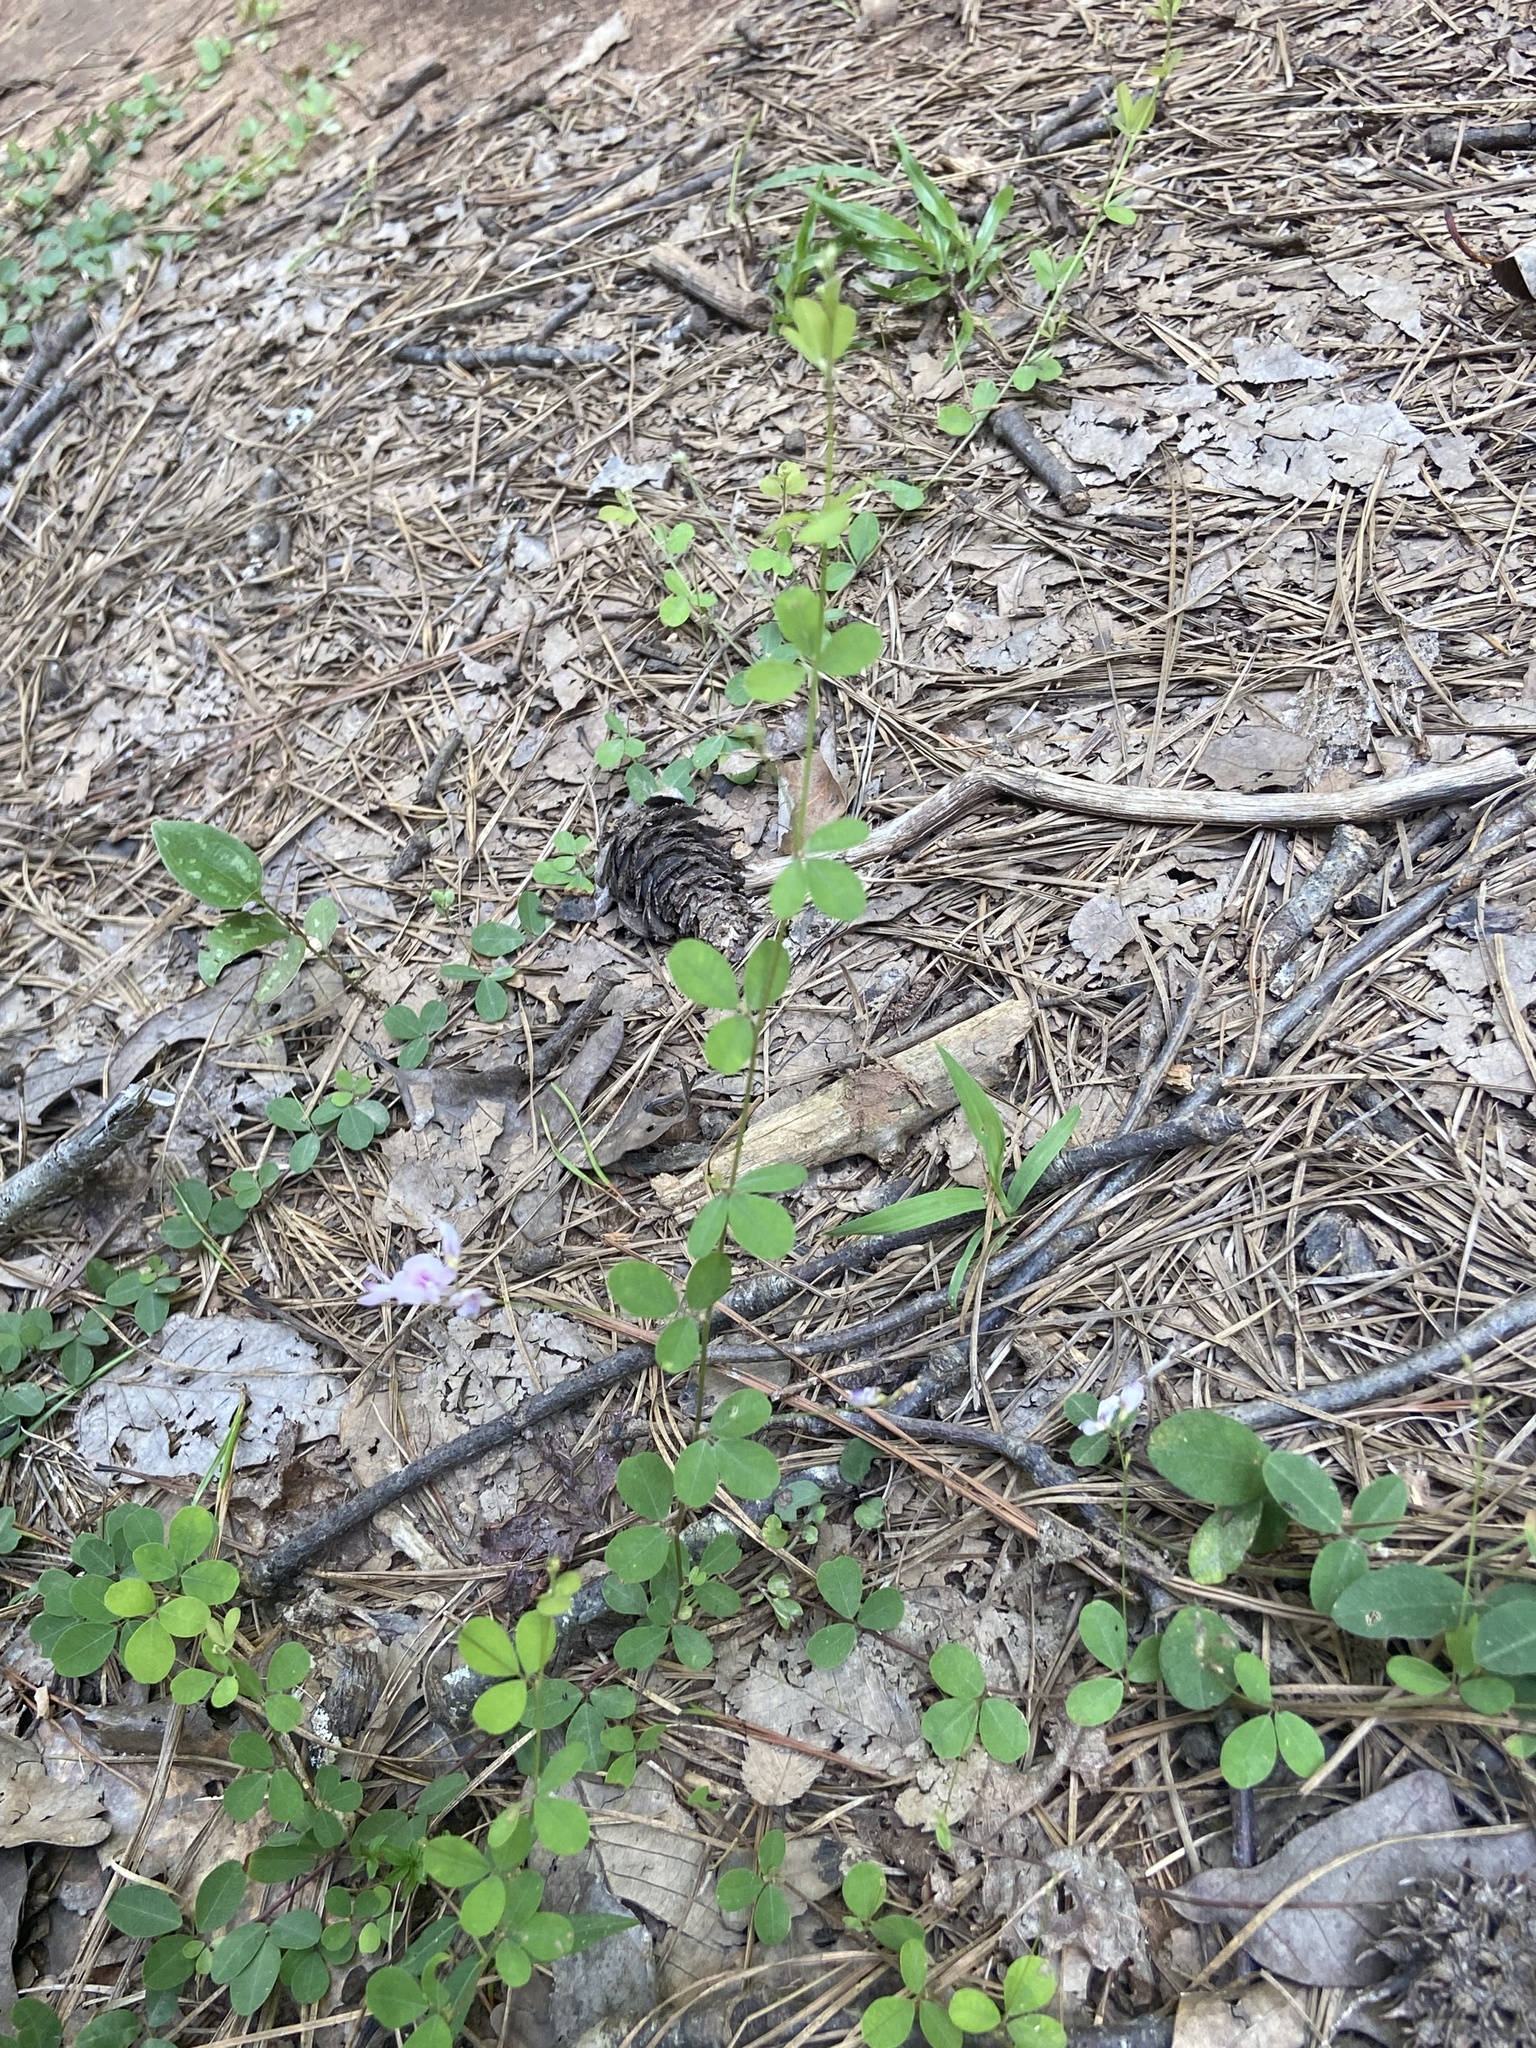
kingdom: Plantae
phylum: Tracheophyta
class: Magnoliopsida
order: Fabales
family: Fabaceae
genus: Lespedeza
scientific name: Lespedeza repens
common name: Creeping bush-clover
